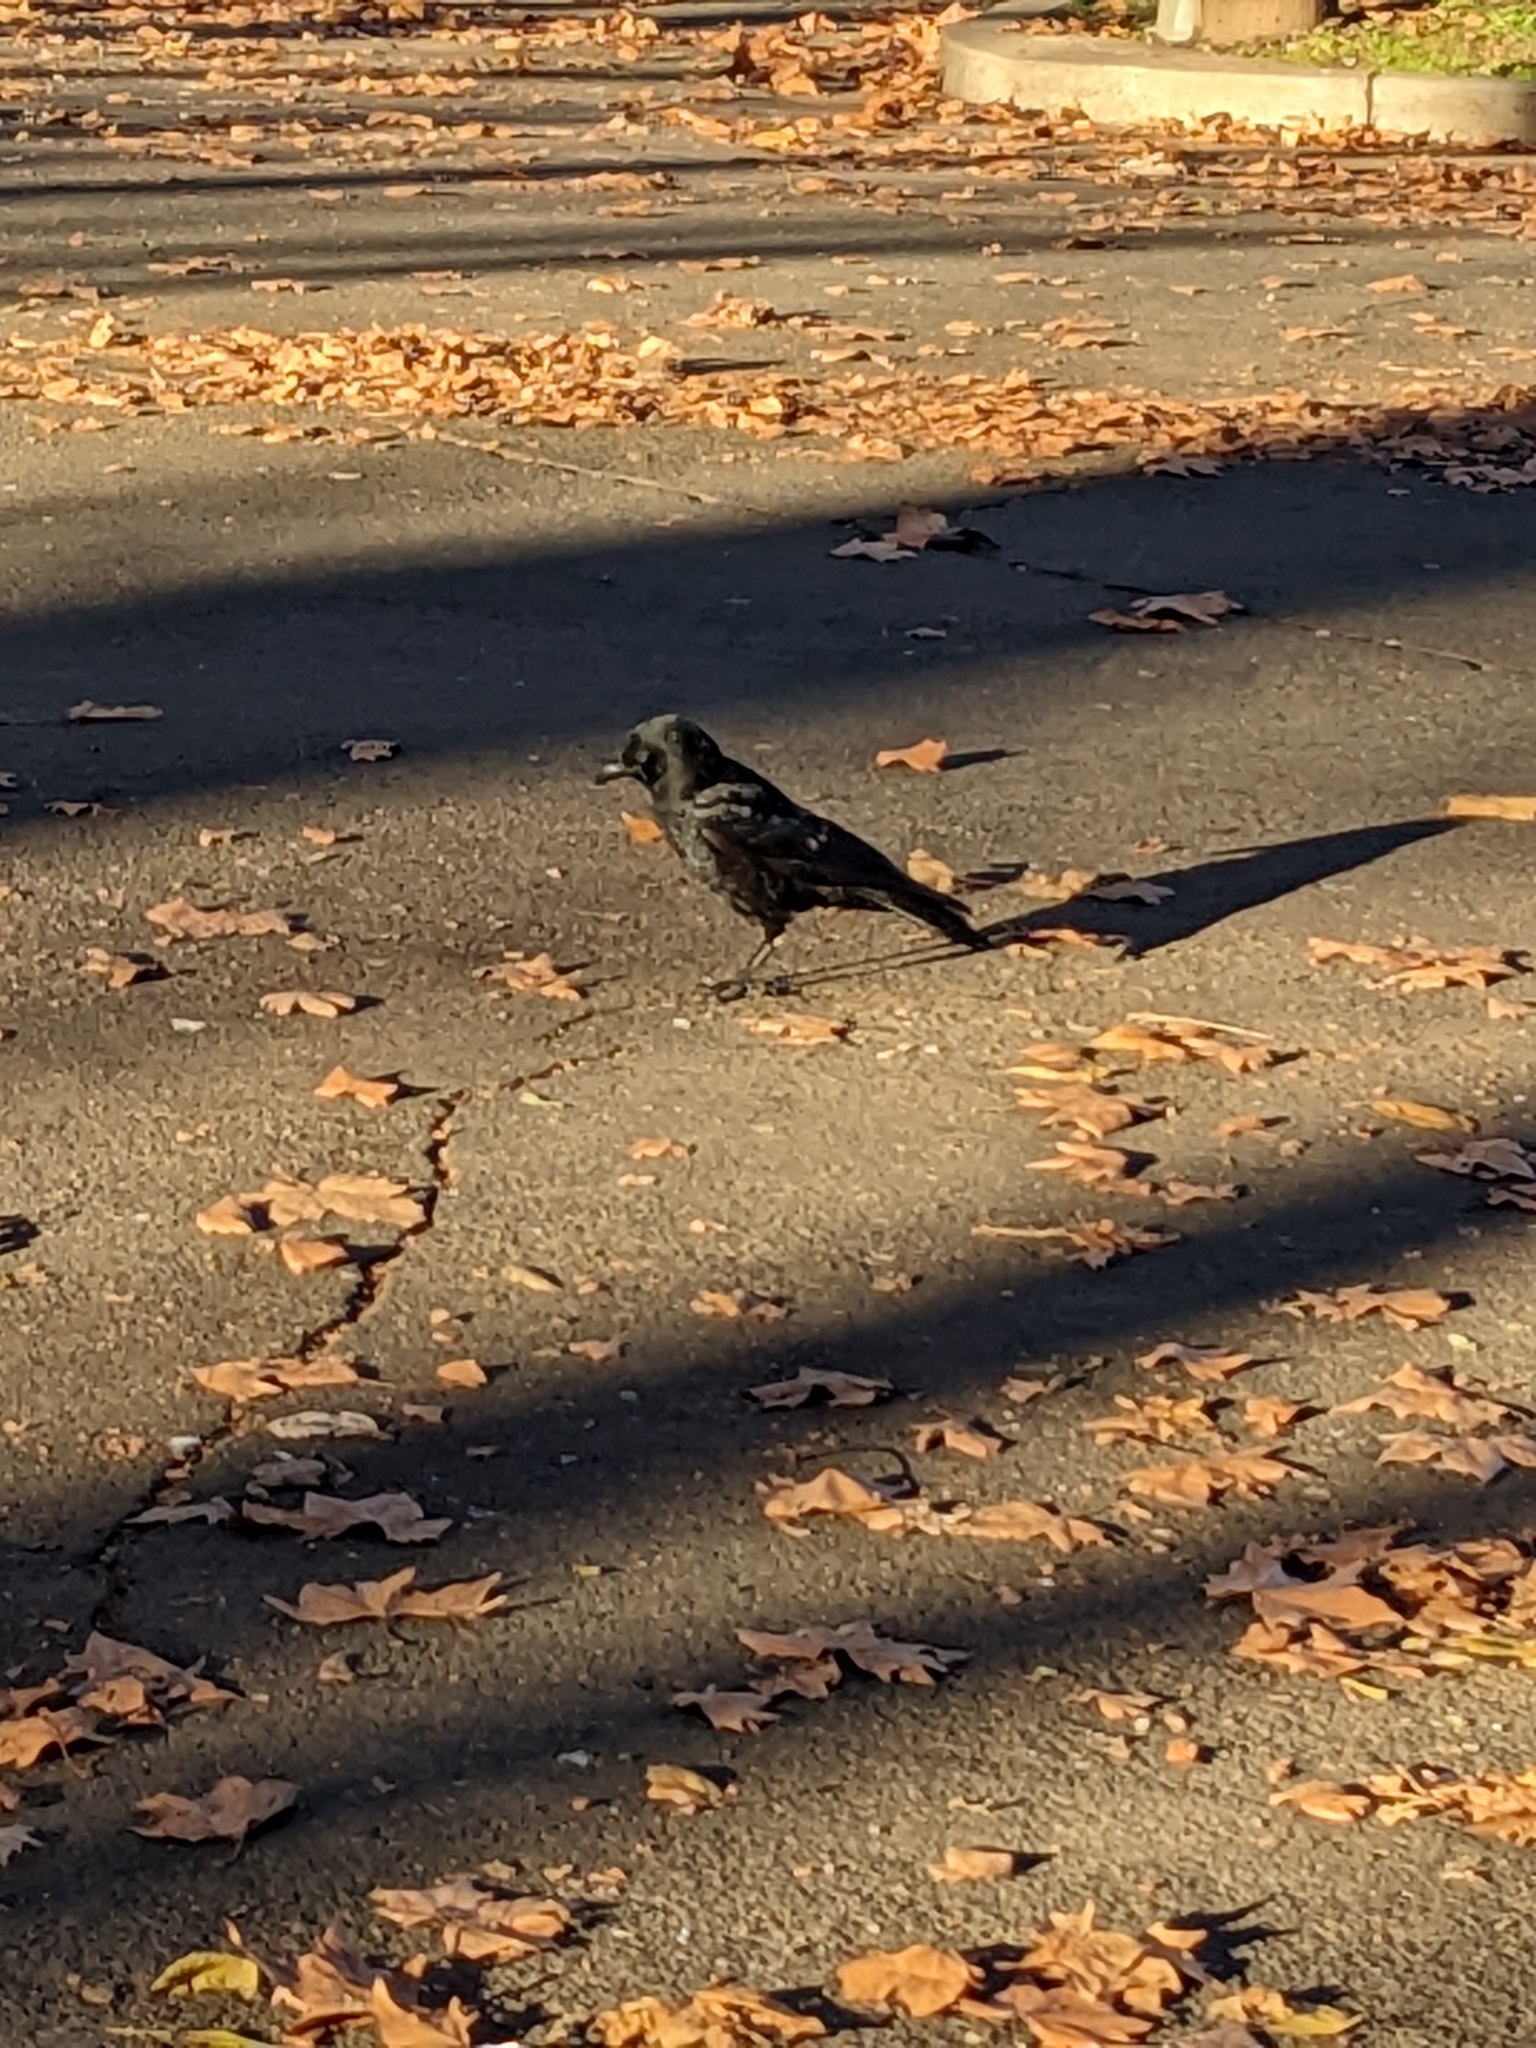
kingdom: Animalia
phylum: Chordata
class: Aves
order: Passeriformes
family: Corvidae
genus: Corvus
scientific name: Corvus brachyrhynchos
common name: American crow
